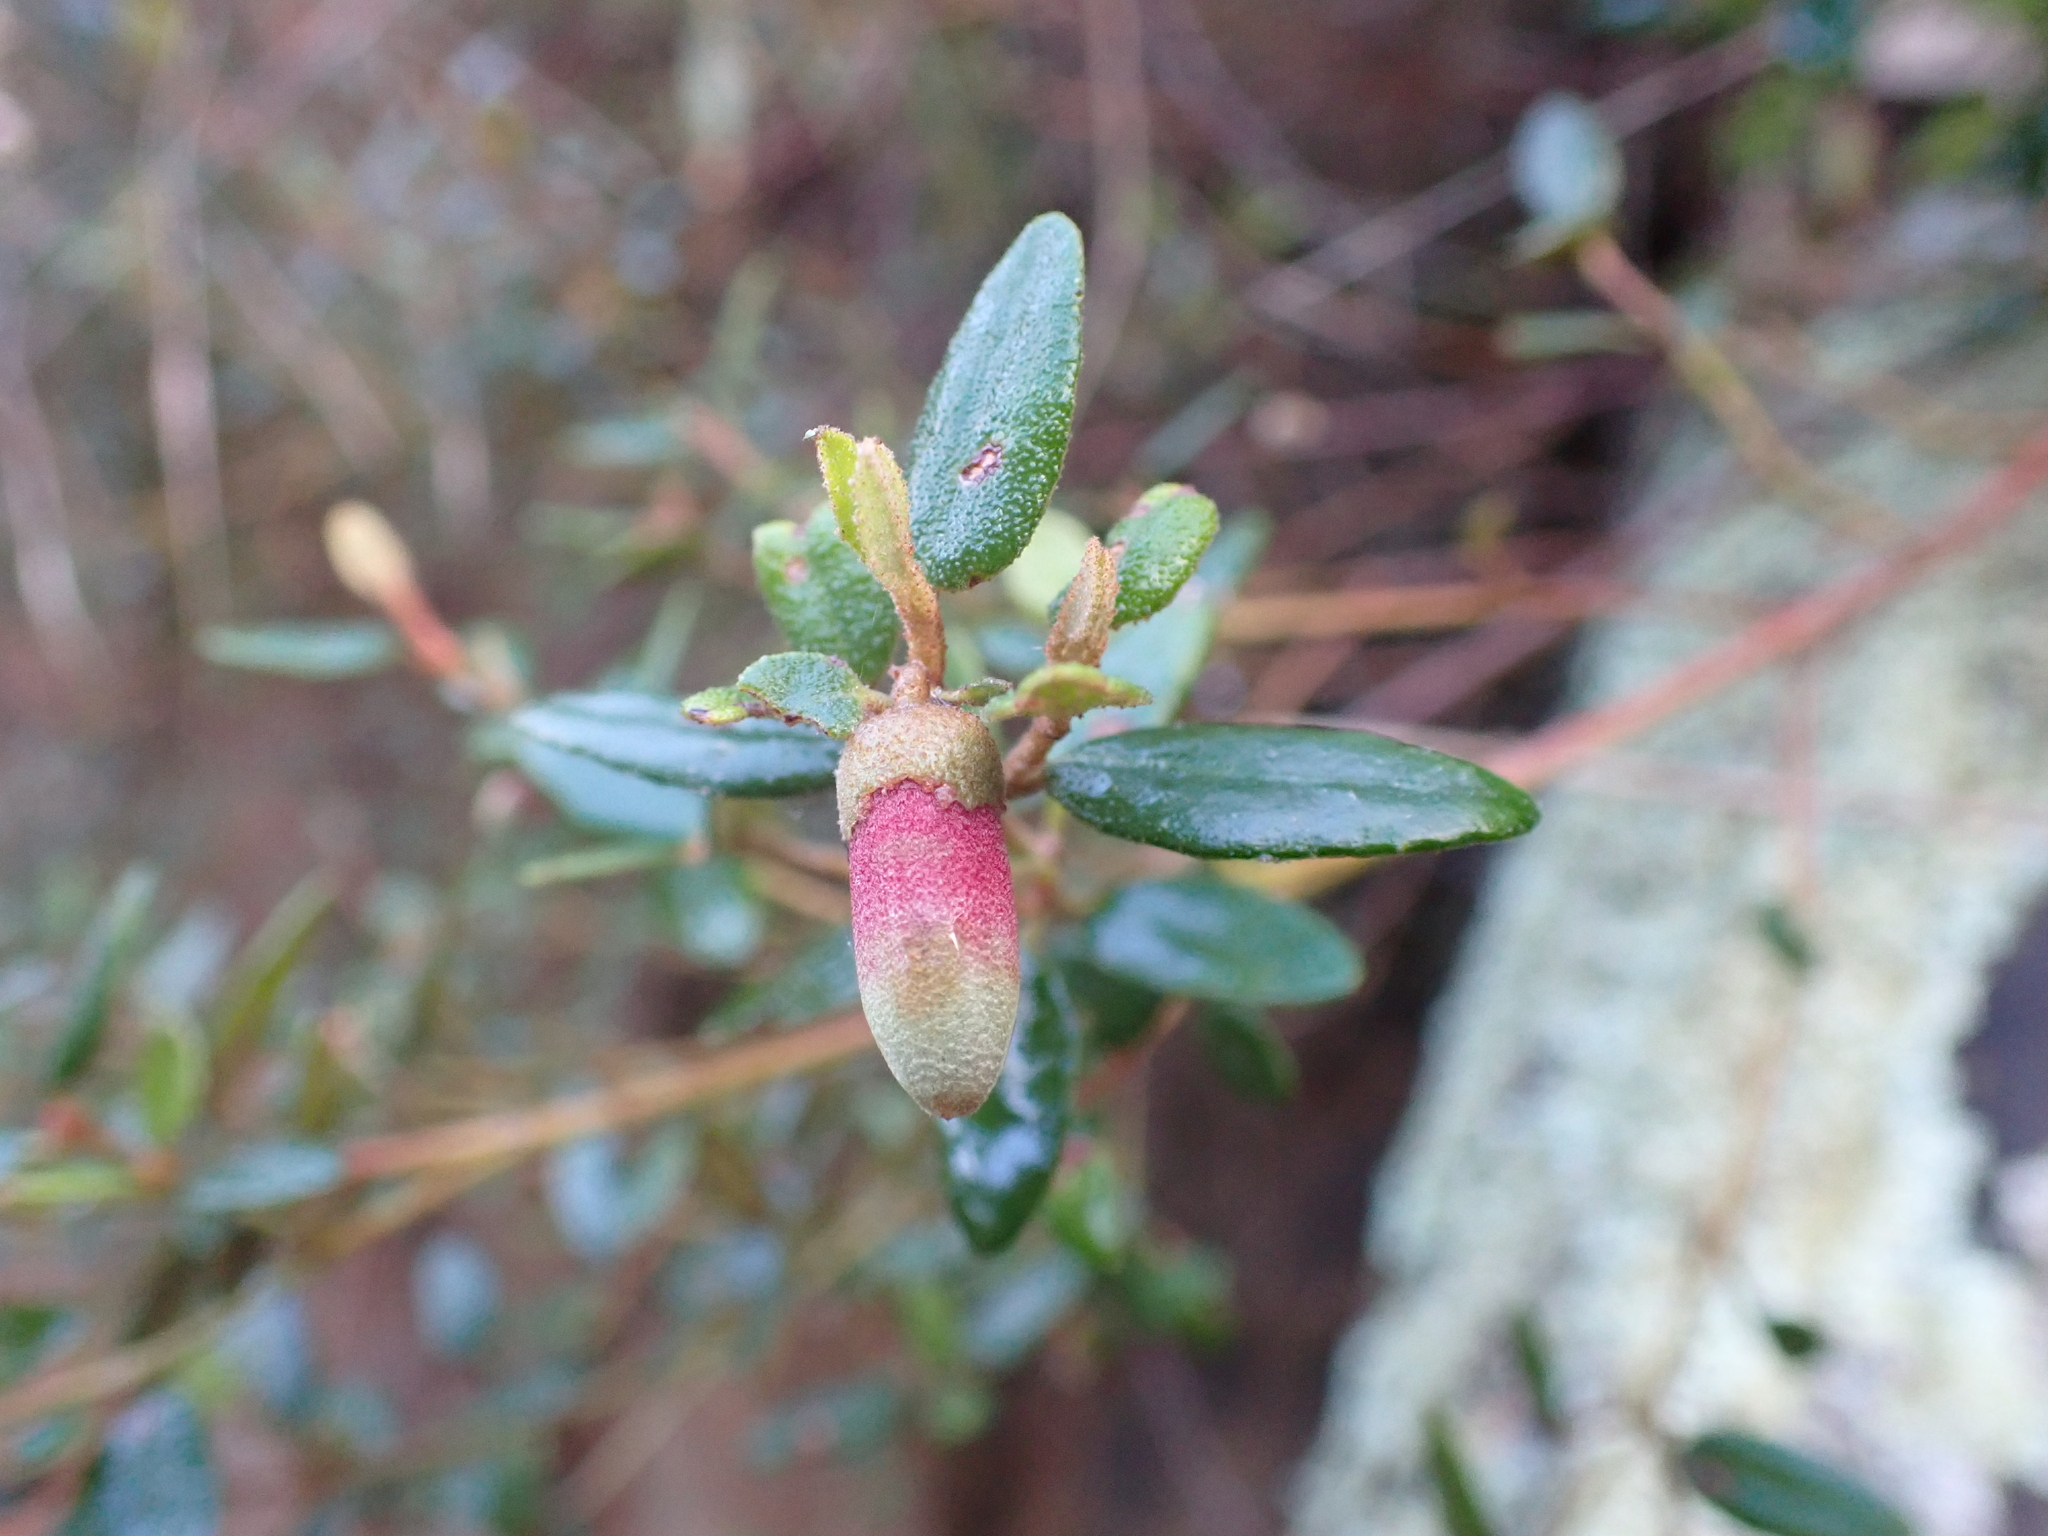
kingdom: Plantae
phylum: Tracheophyta
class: Magnoliopsida
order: Sapindales
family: Rutaceae
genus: Correa
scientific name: Correa reflexa
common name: Common correa
